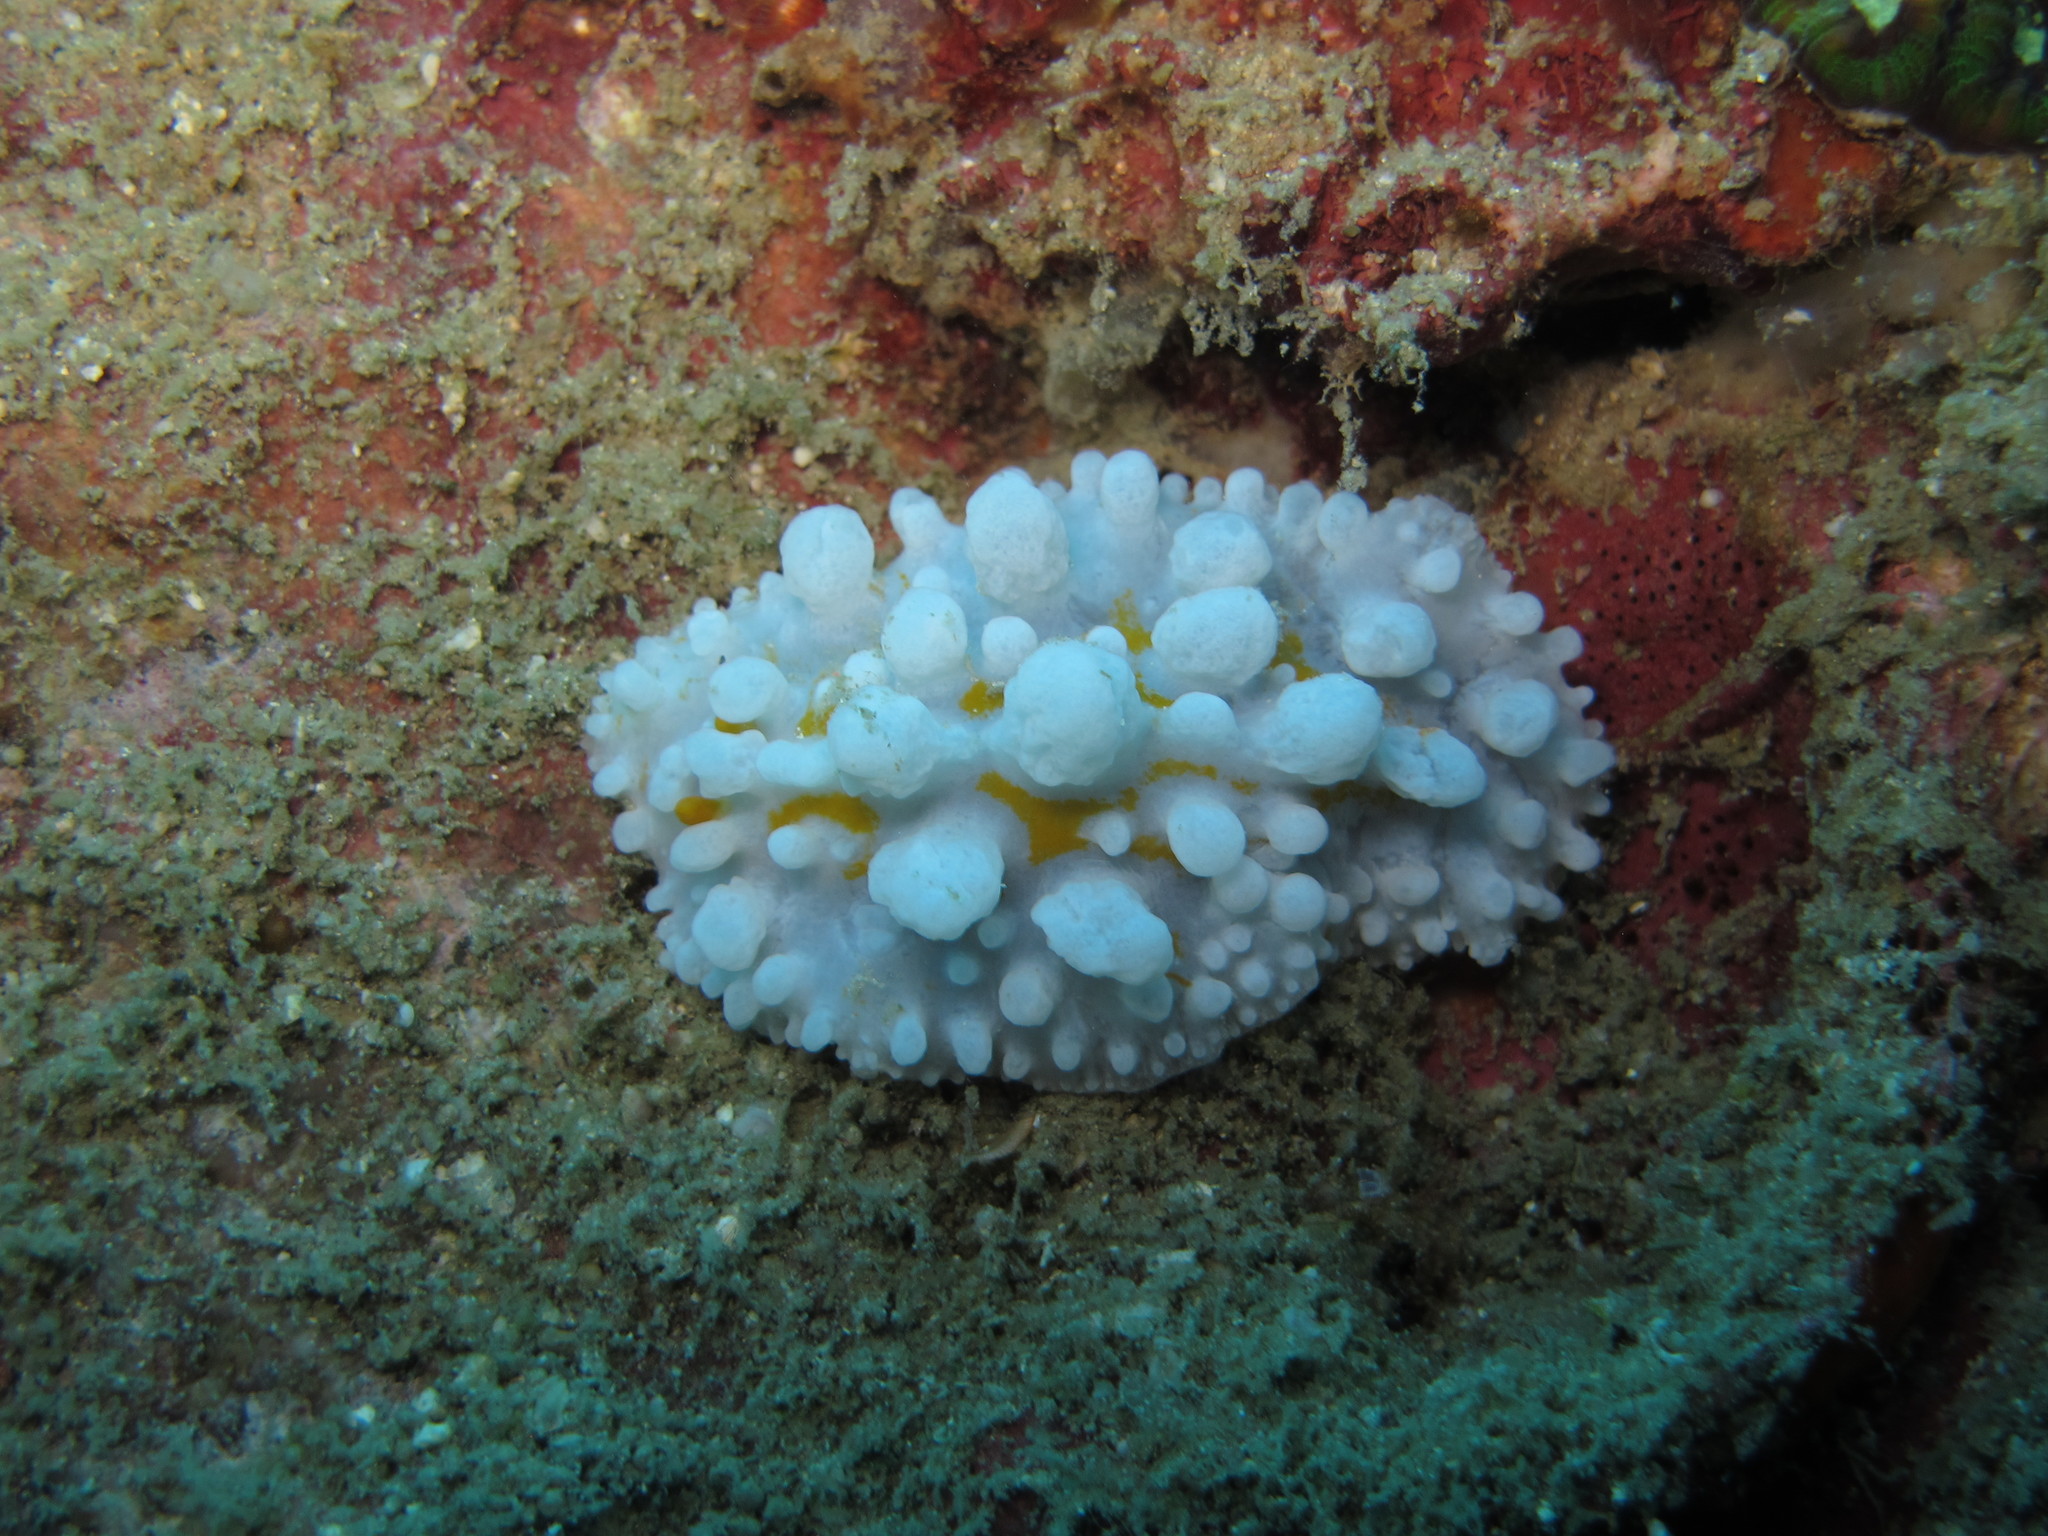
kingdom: Animalia
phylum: Mollusca
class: Gastropoda
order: Nudibranchia
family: Phyllidiidae
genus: Phyllidia
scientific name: Phyllidia ocellata
